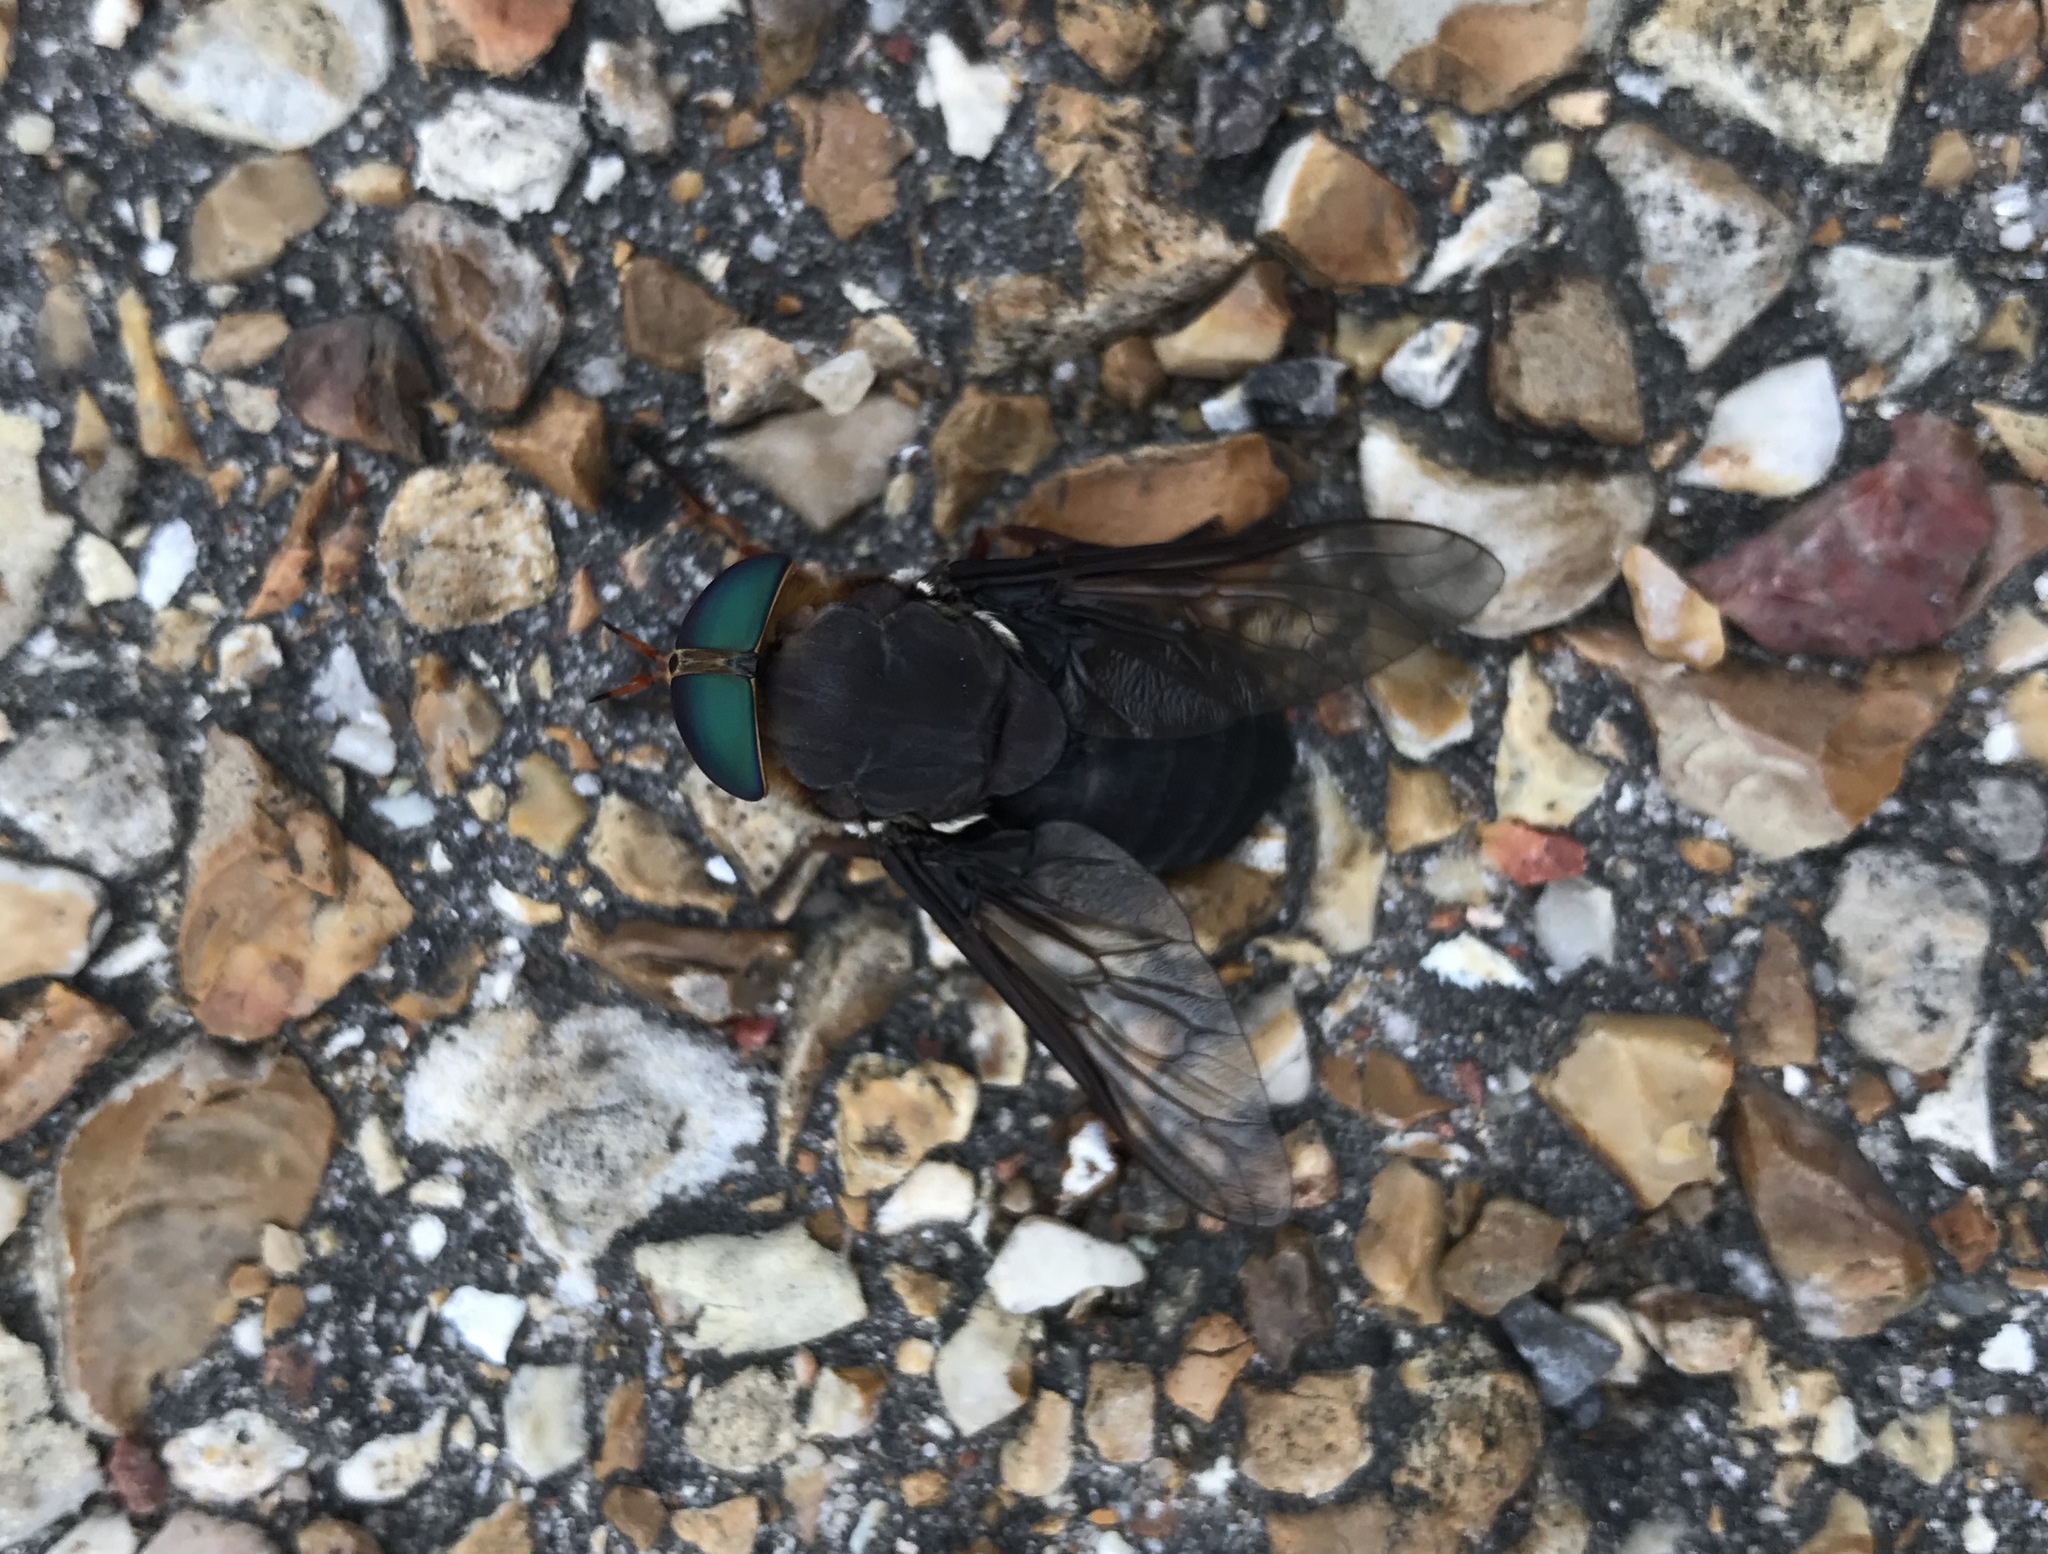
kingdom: Animalia
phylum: Arthropoda
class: Insecta
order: Diptera
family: Tabanidae
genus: Tabanus
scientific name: Tabanus americanus
